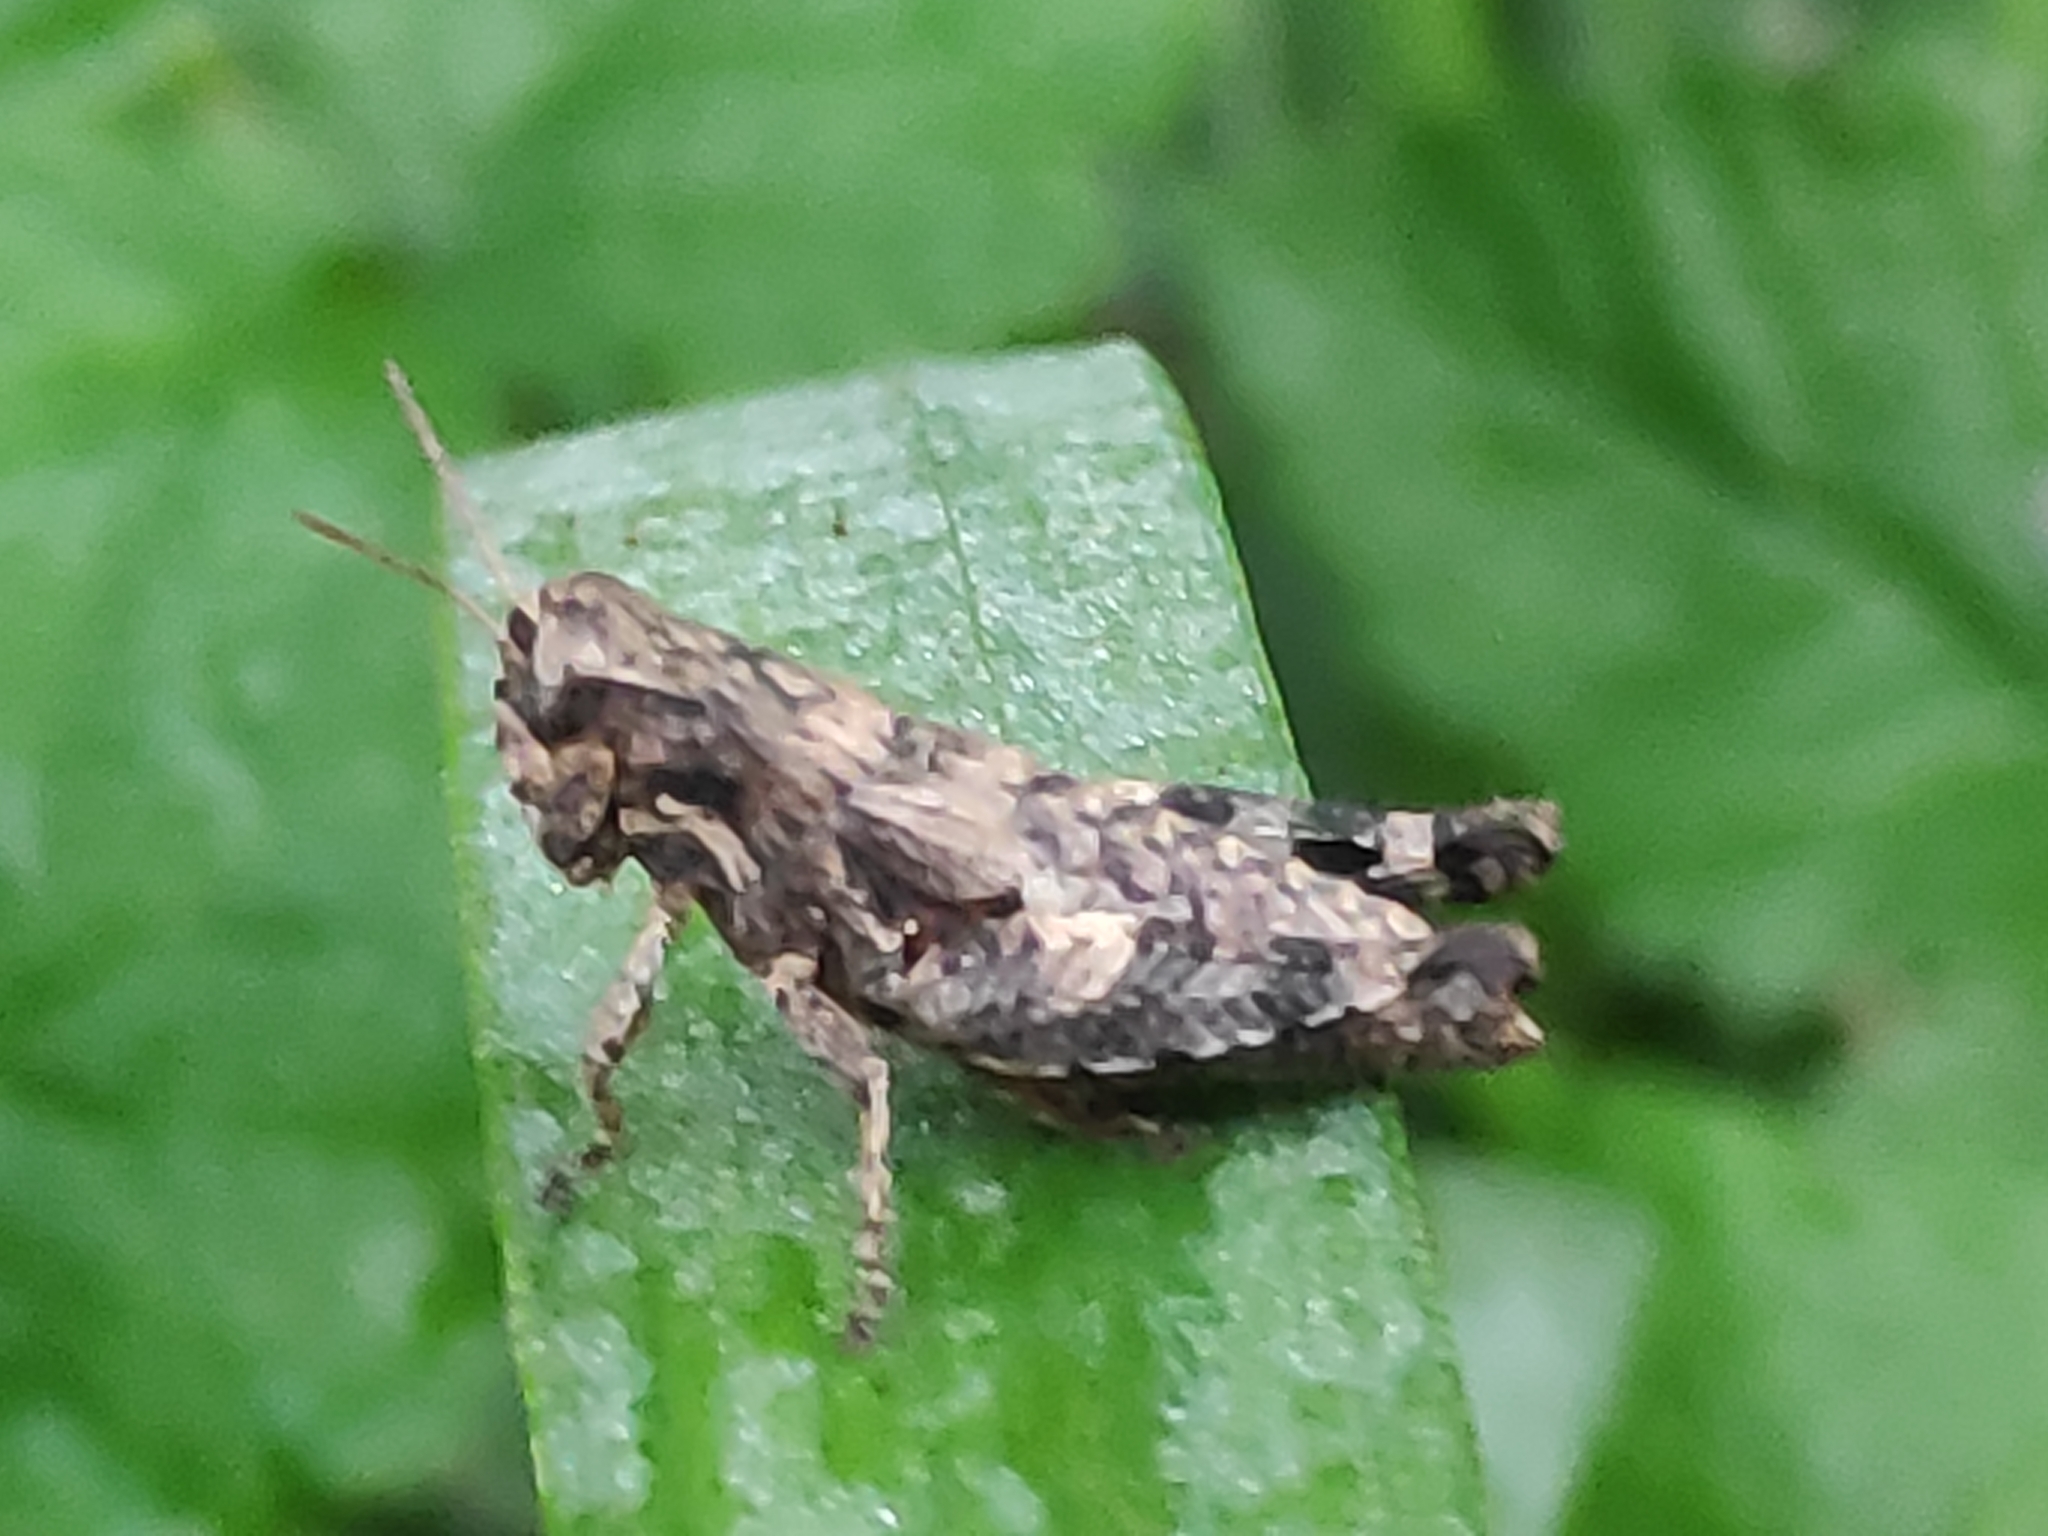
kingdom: Animalia
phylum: Arthropoda
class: Insecta
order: Orthoptera
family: Acrididae
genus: Pezotettix
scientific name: Pezotettix giornae
